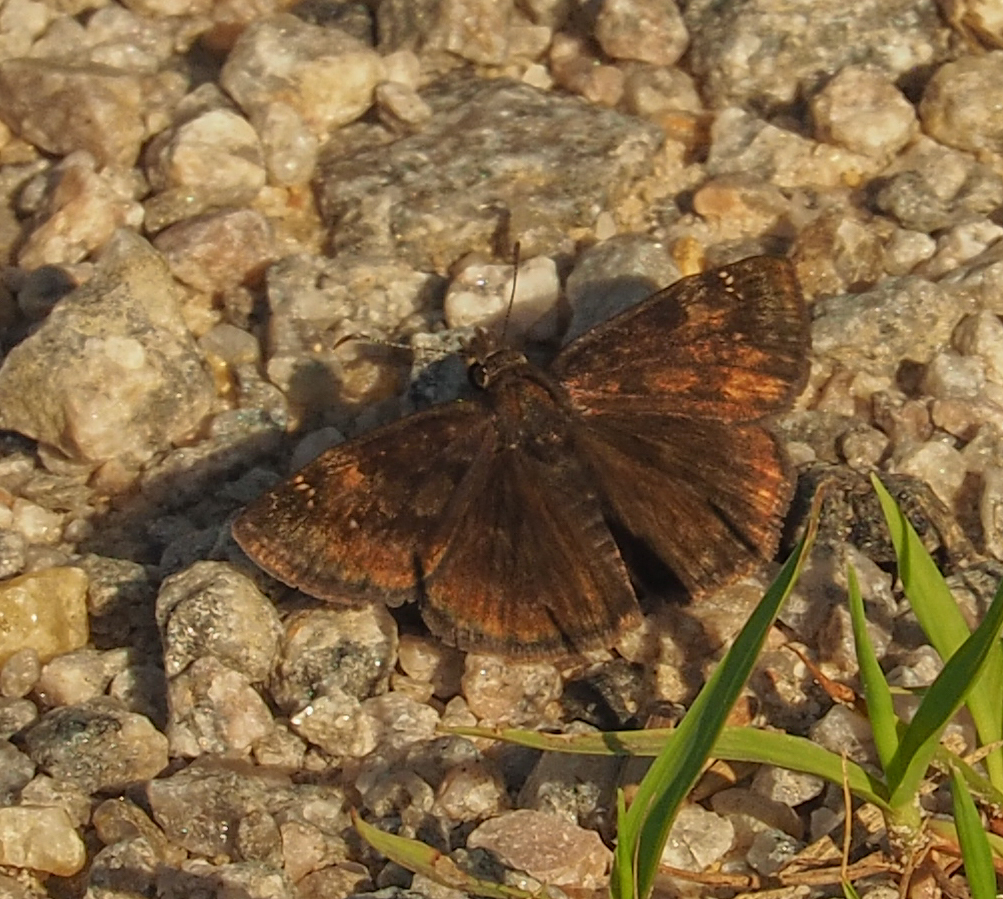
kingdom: Animalia
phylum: Arthropoda
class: Insecta
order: Lepidoptera
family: Hesperiidae
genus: Erynnis
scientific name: Erynnis baptisiae
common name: Wild indigo duskywing
